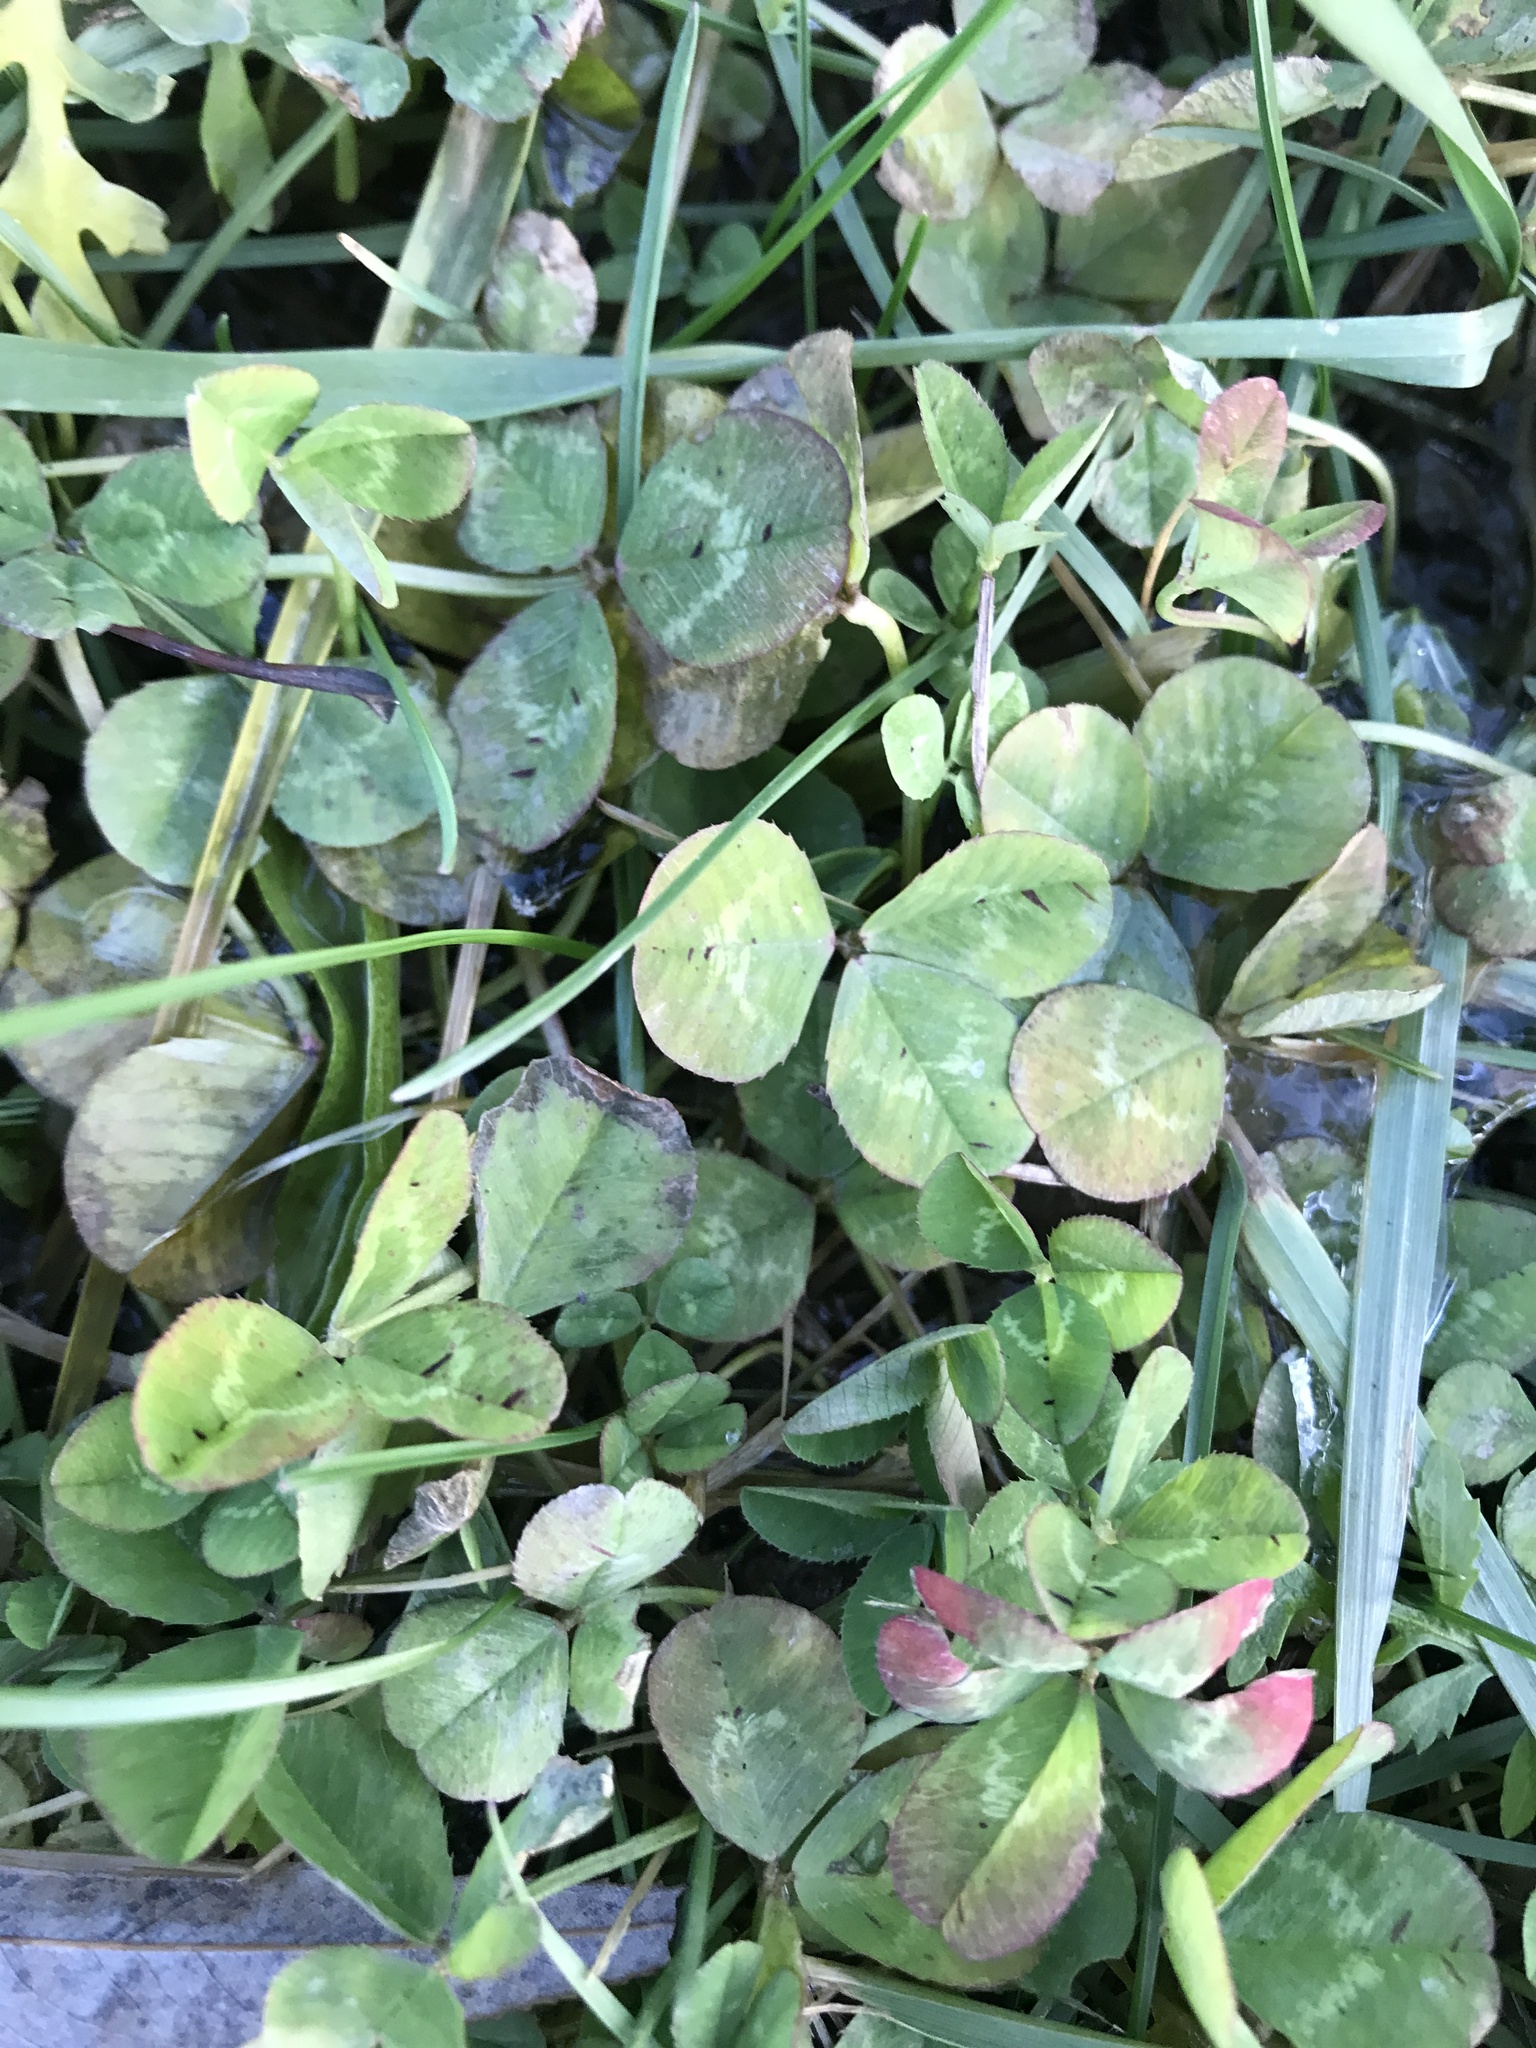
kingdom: Plantae
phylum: Tracheophyta
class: Magnoliopsida
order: Fabales
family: Fabaceae
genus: Trifolium
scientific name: Trifolium repens
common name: White clover
